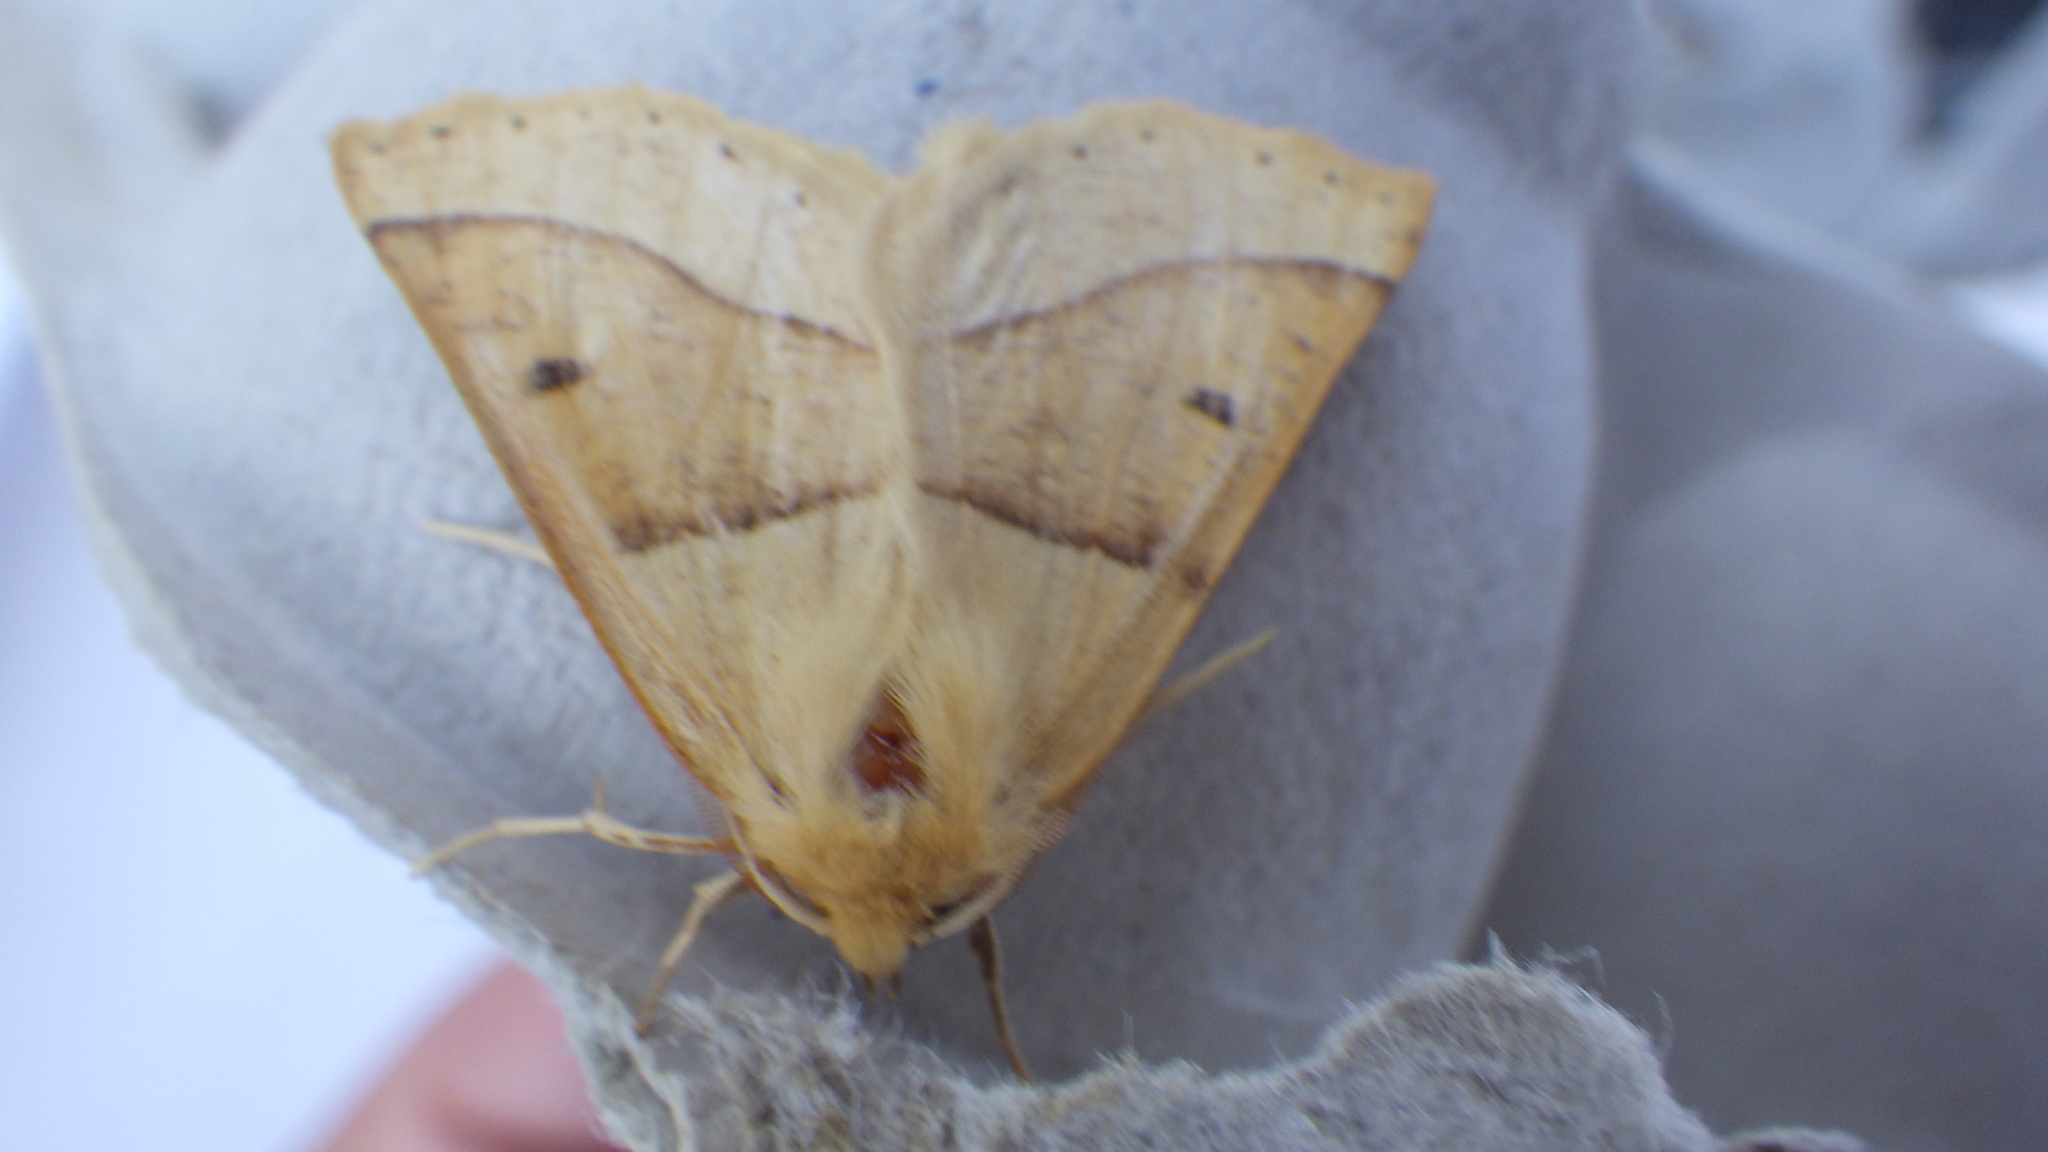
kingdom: Animalia
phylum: Arthropoda
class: Insecta
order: Lepidoptera
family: Geometridae
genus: Crocallis
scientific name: Crocallis elinguaria
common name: Scalloped oak
